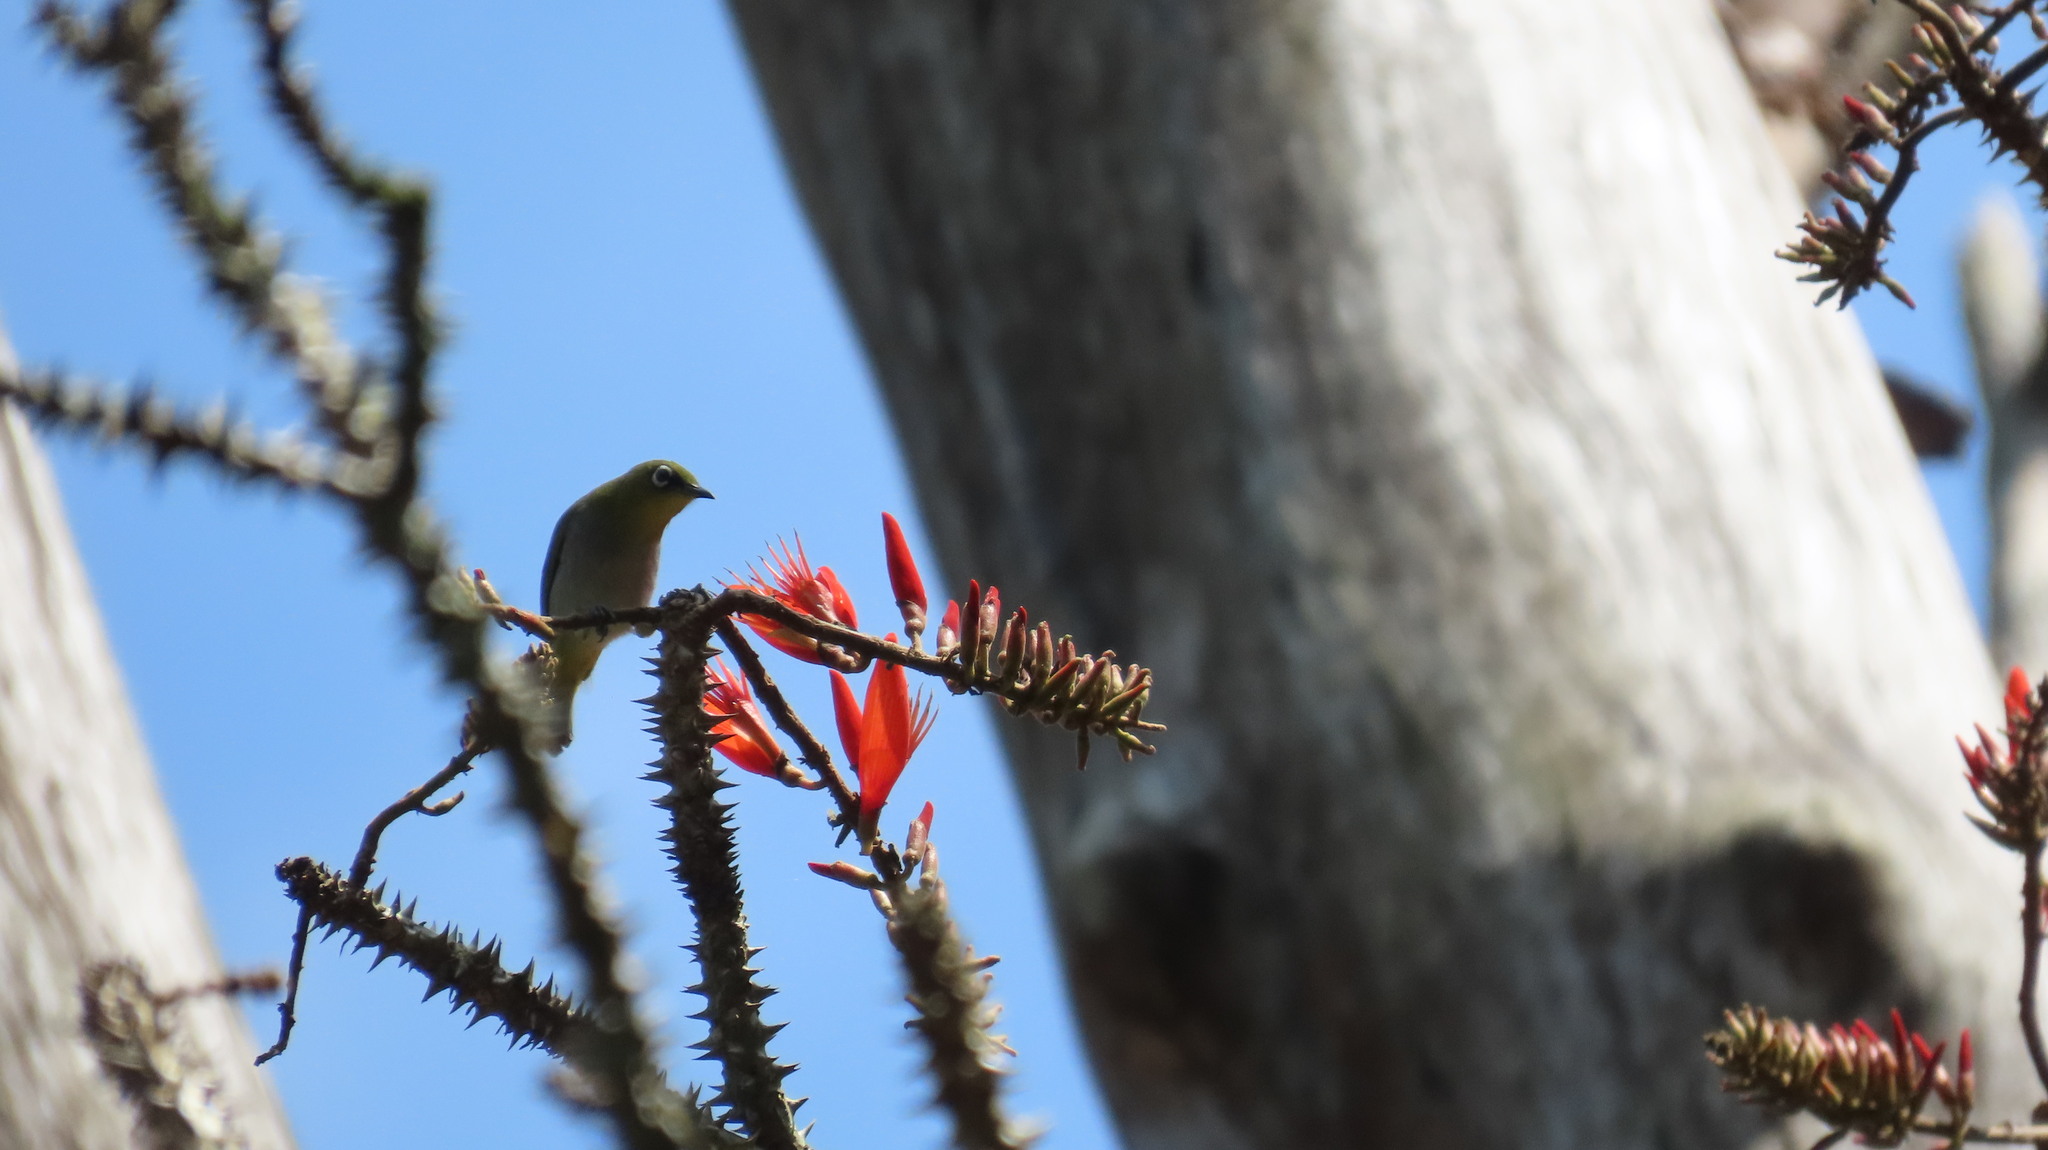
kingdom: Animalia
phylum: Chordata
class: Aves
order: Passeriformes
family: Zosteropidae
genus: Zosterops
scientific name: Zosterops palpebrosus
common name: Oriental white-eye
